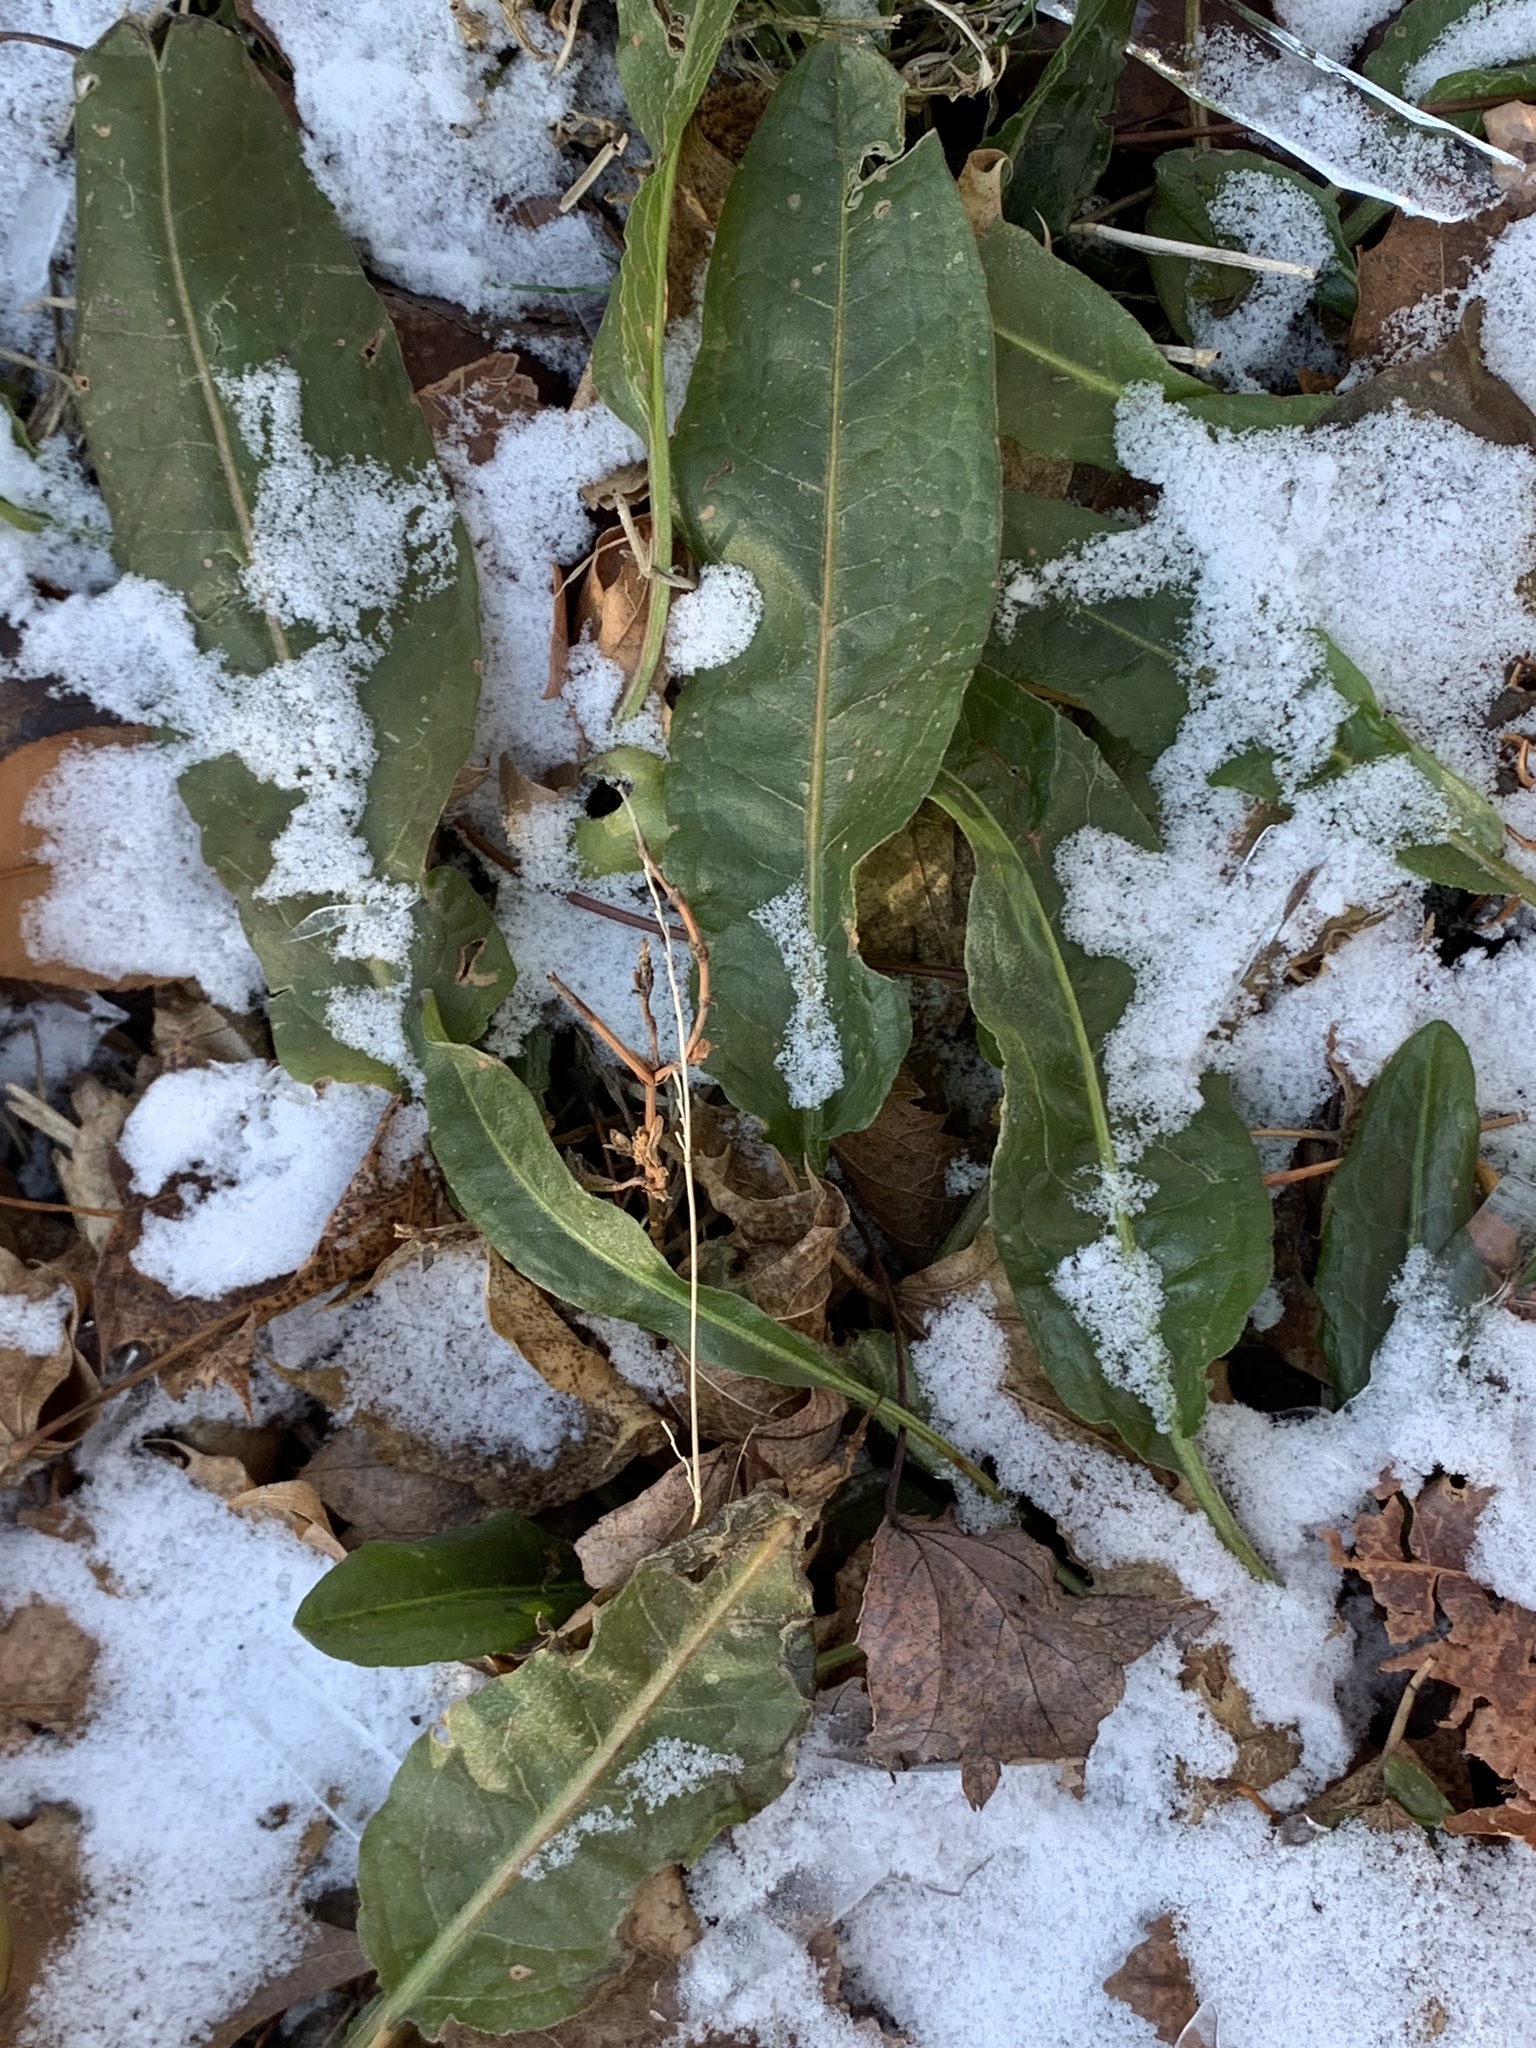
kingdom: Plantae
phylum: Tracheophyta
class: Magnoliopsida
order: Caryophyllales
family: Polygonaceae
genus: Rumex
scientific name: Rumex crispus
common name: Curled dock
